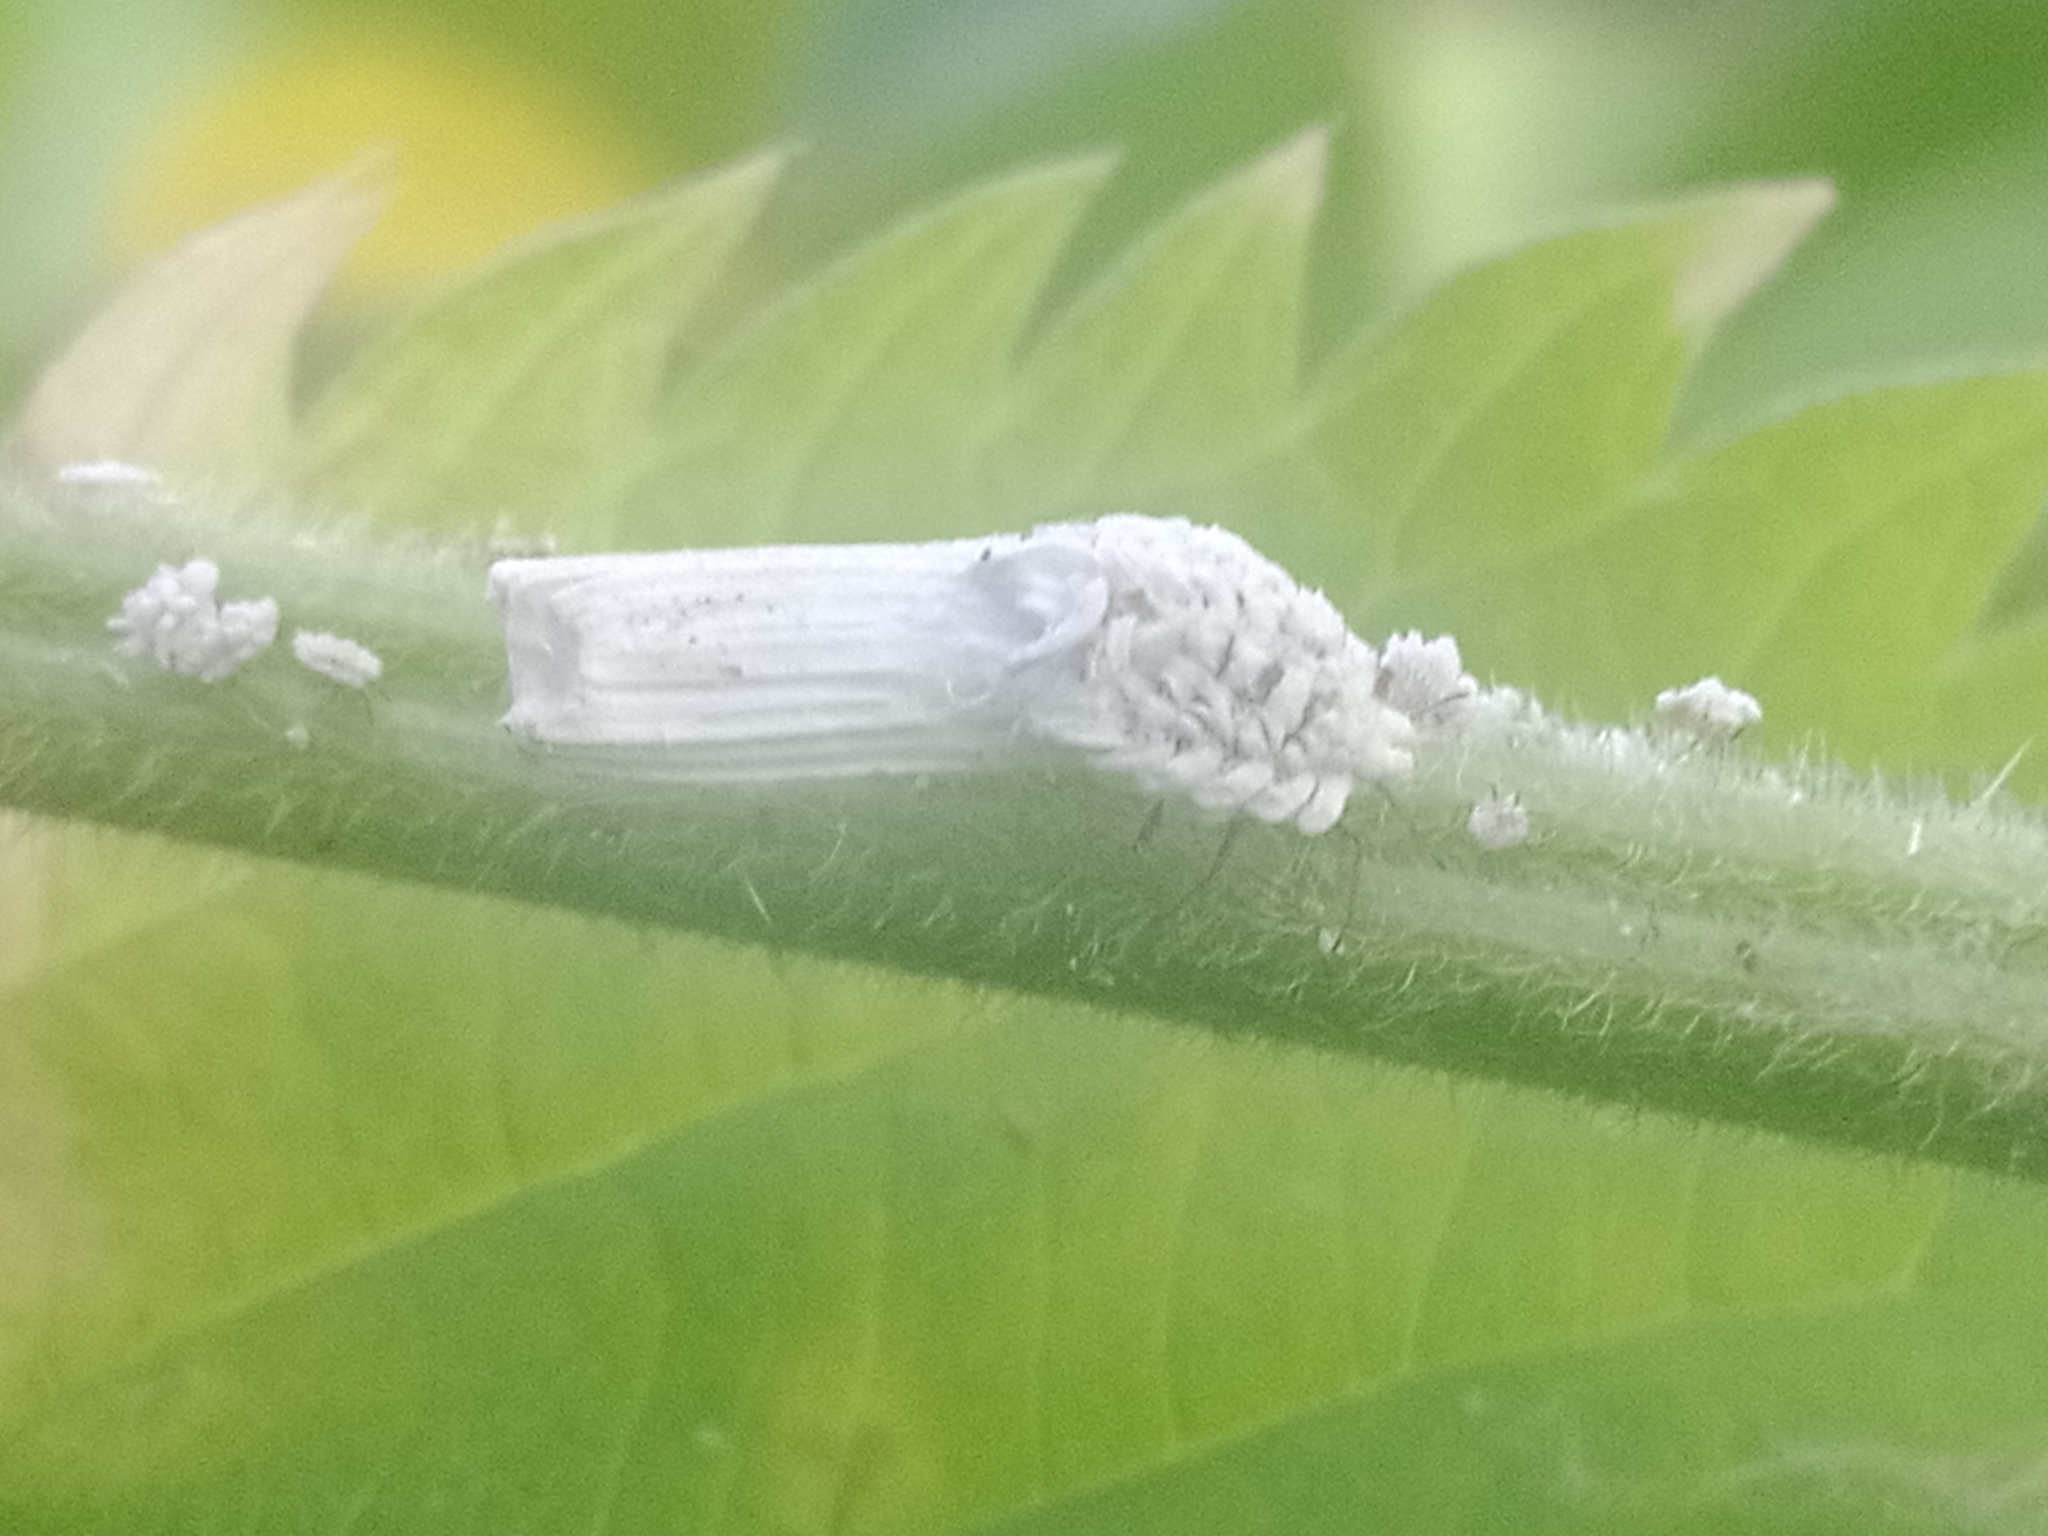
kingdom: Animalia
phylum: Arthropoda
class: Insecta
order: Hemiptera
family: Ortheziidae
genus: Orthezia
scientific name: Orthezia urticae
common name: Ensign coccid
